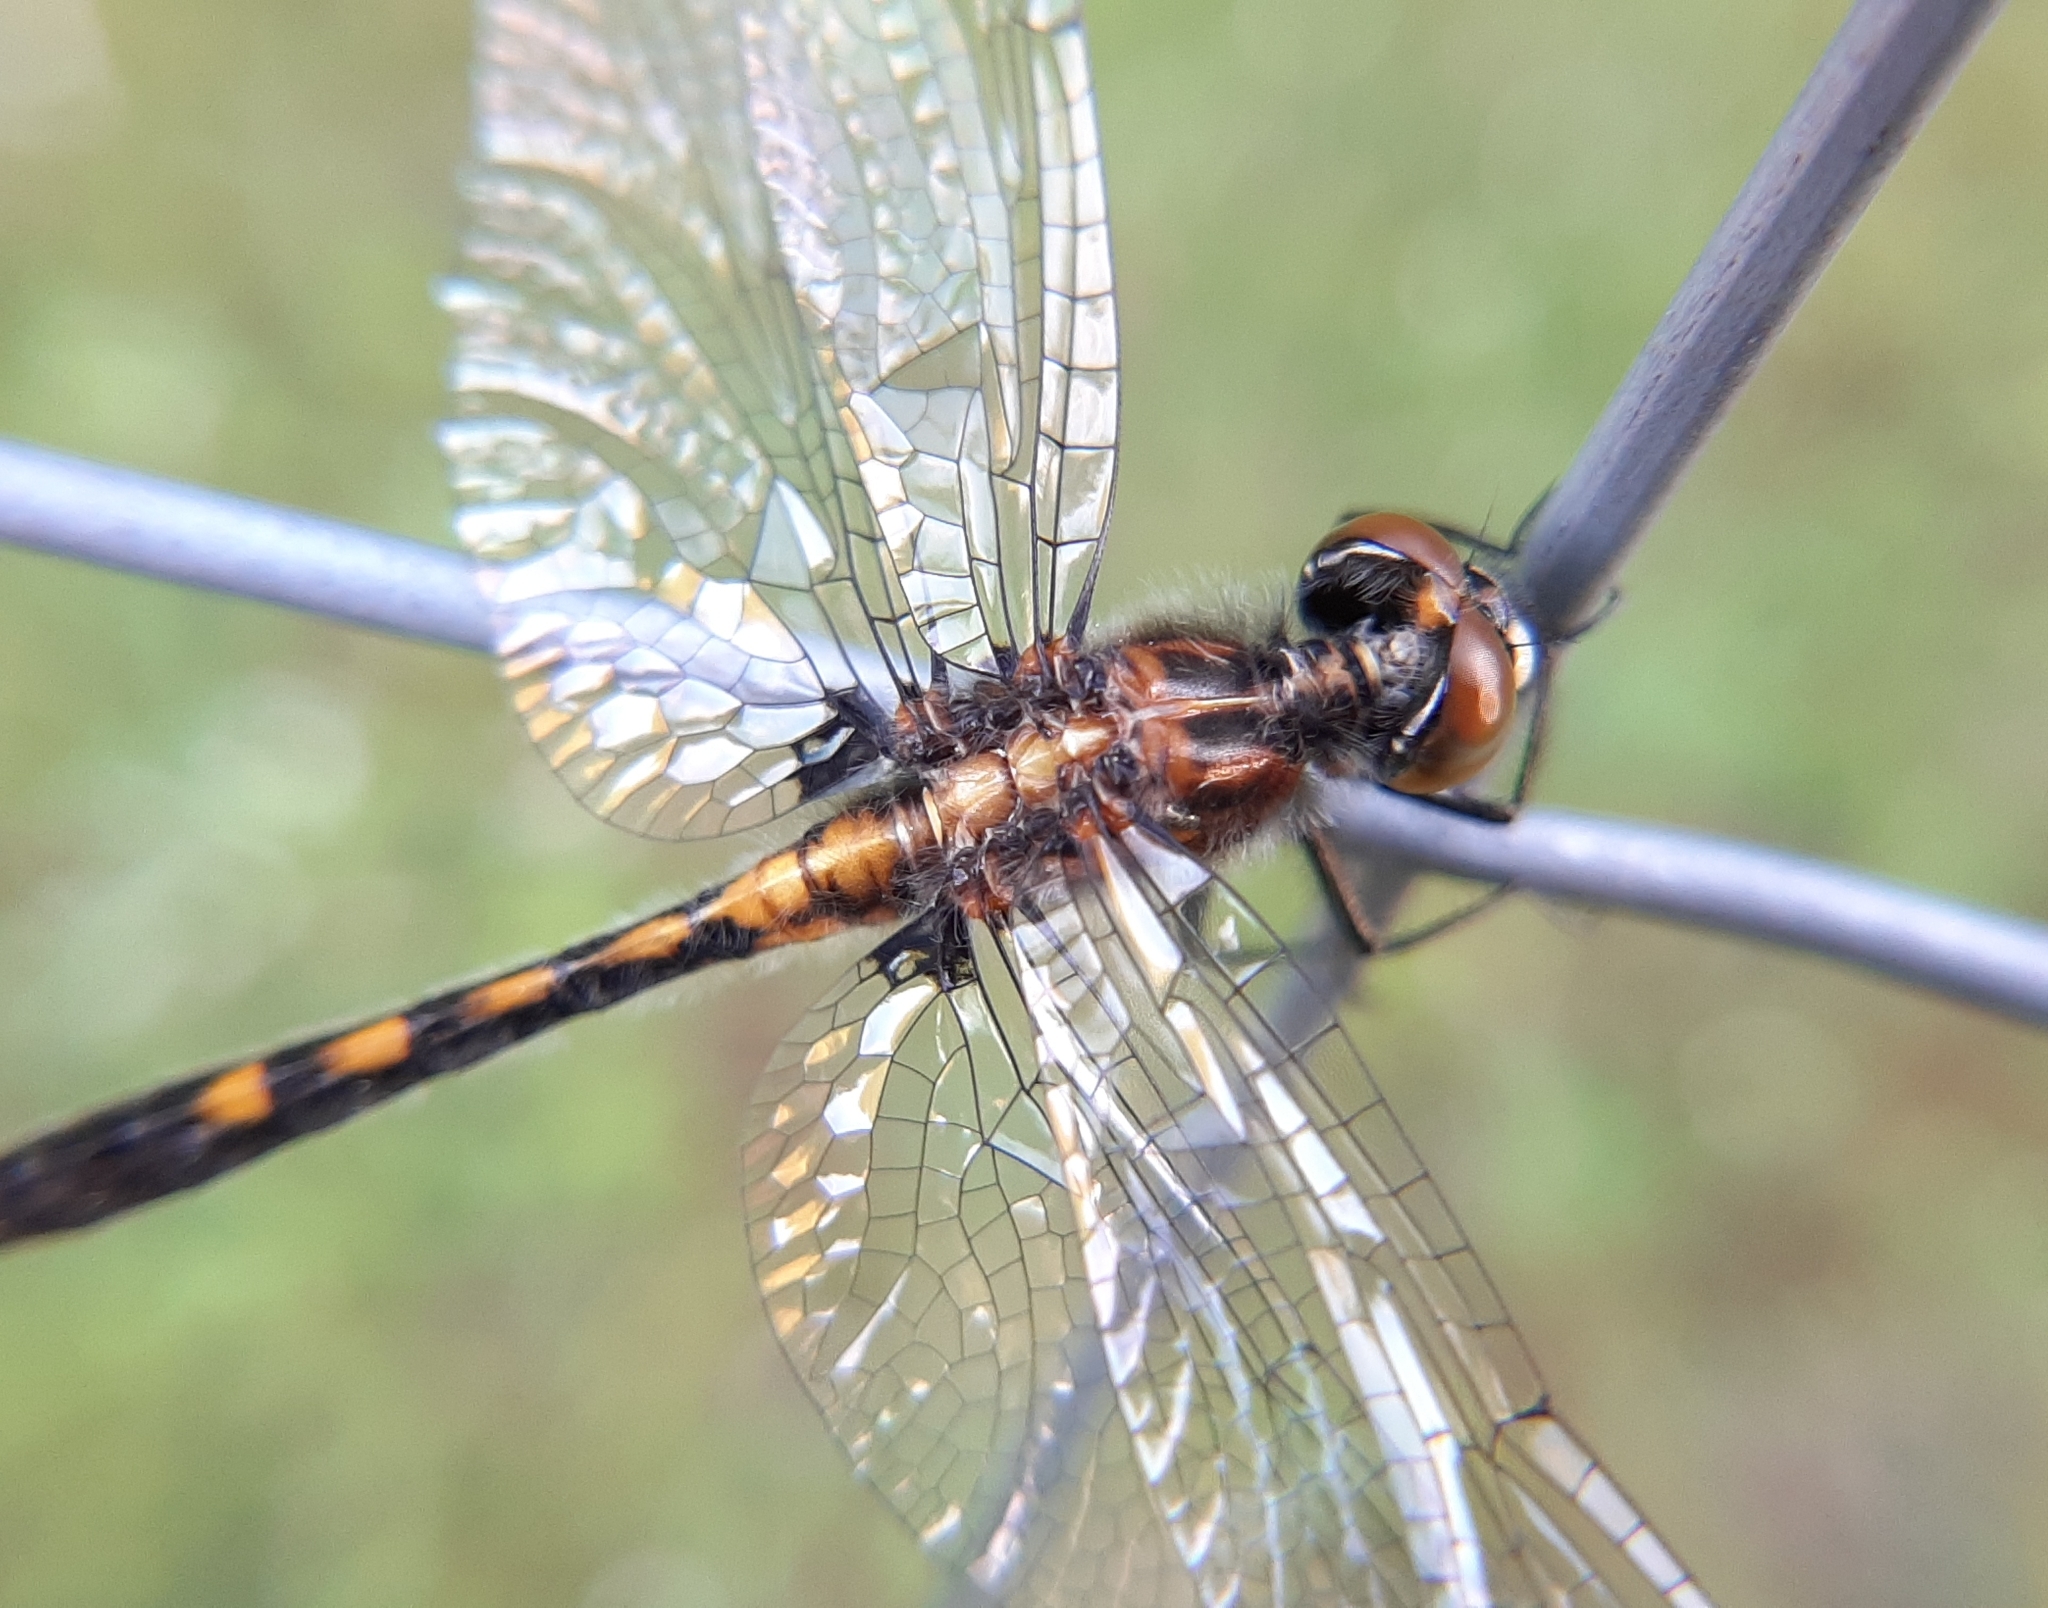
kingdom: Animalia
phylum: Arthropoda
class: Insecta
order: Odonata
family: Libellulidae
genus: Leucorrhinia
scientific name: Leucorrhinia intacta
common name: Dot-tailed whiteface
